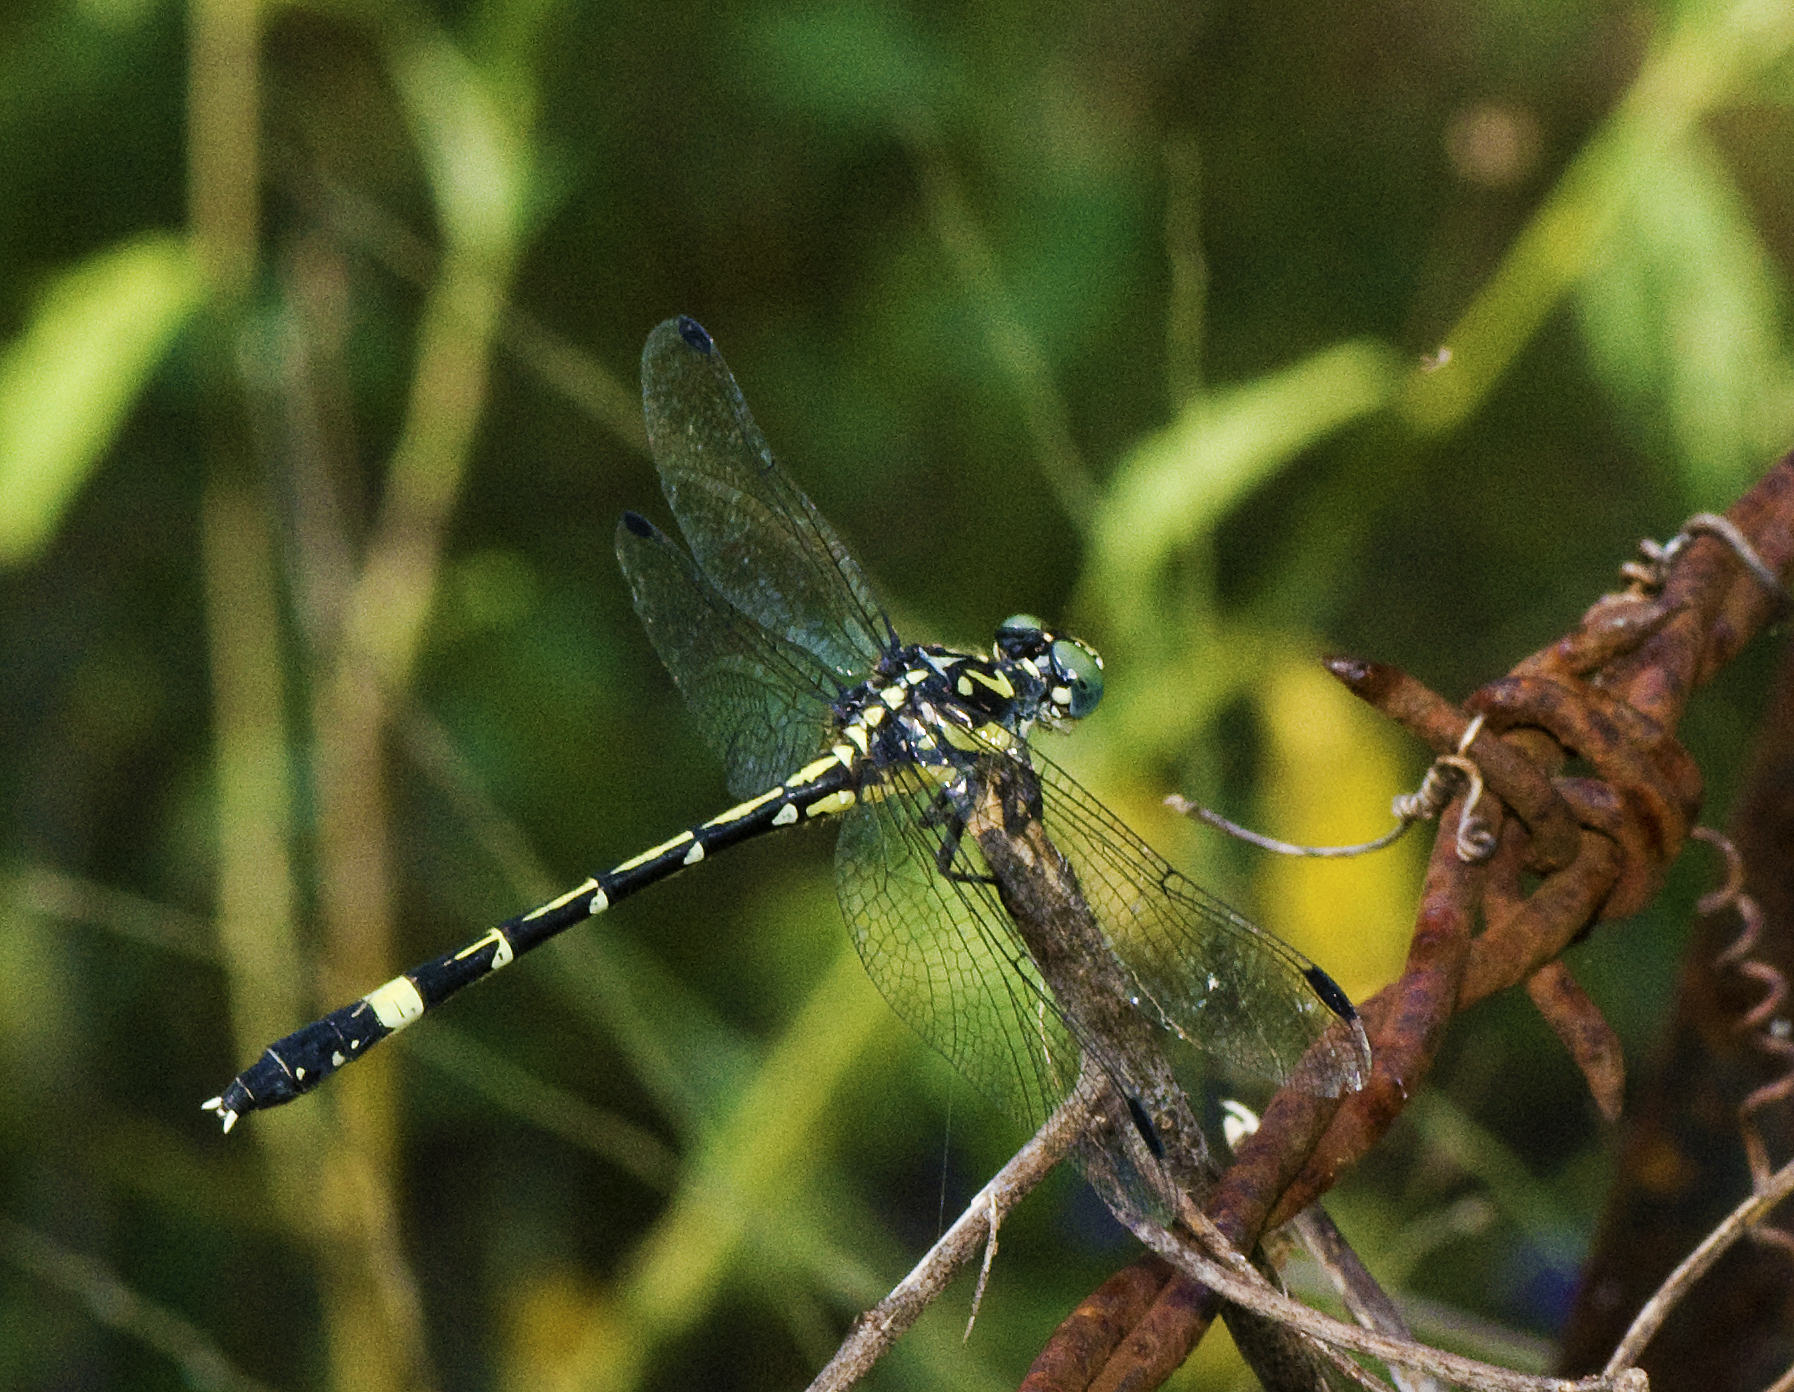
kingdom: Animalia
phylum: Arthropoda
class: Insecta
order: Odonata
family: Gomphidae
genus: Austroepigomphus
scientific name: Austroepigomphus praeruptus
